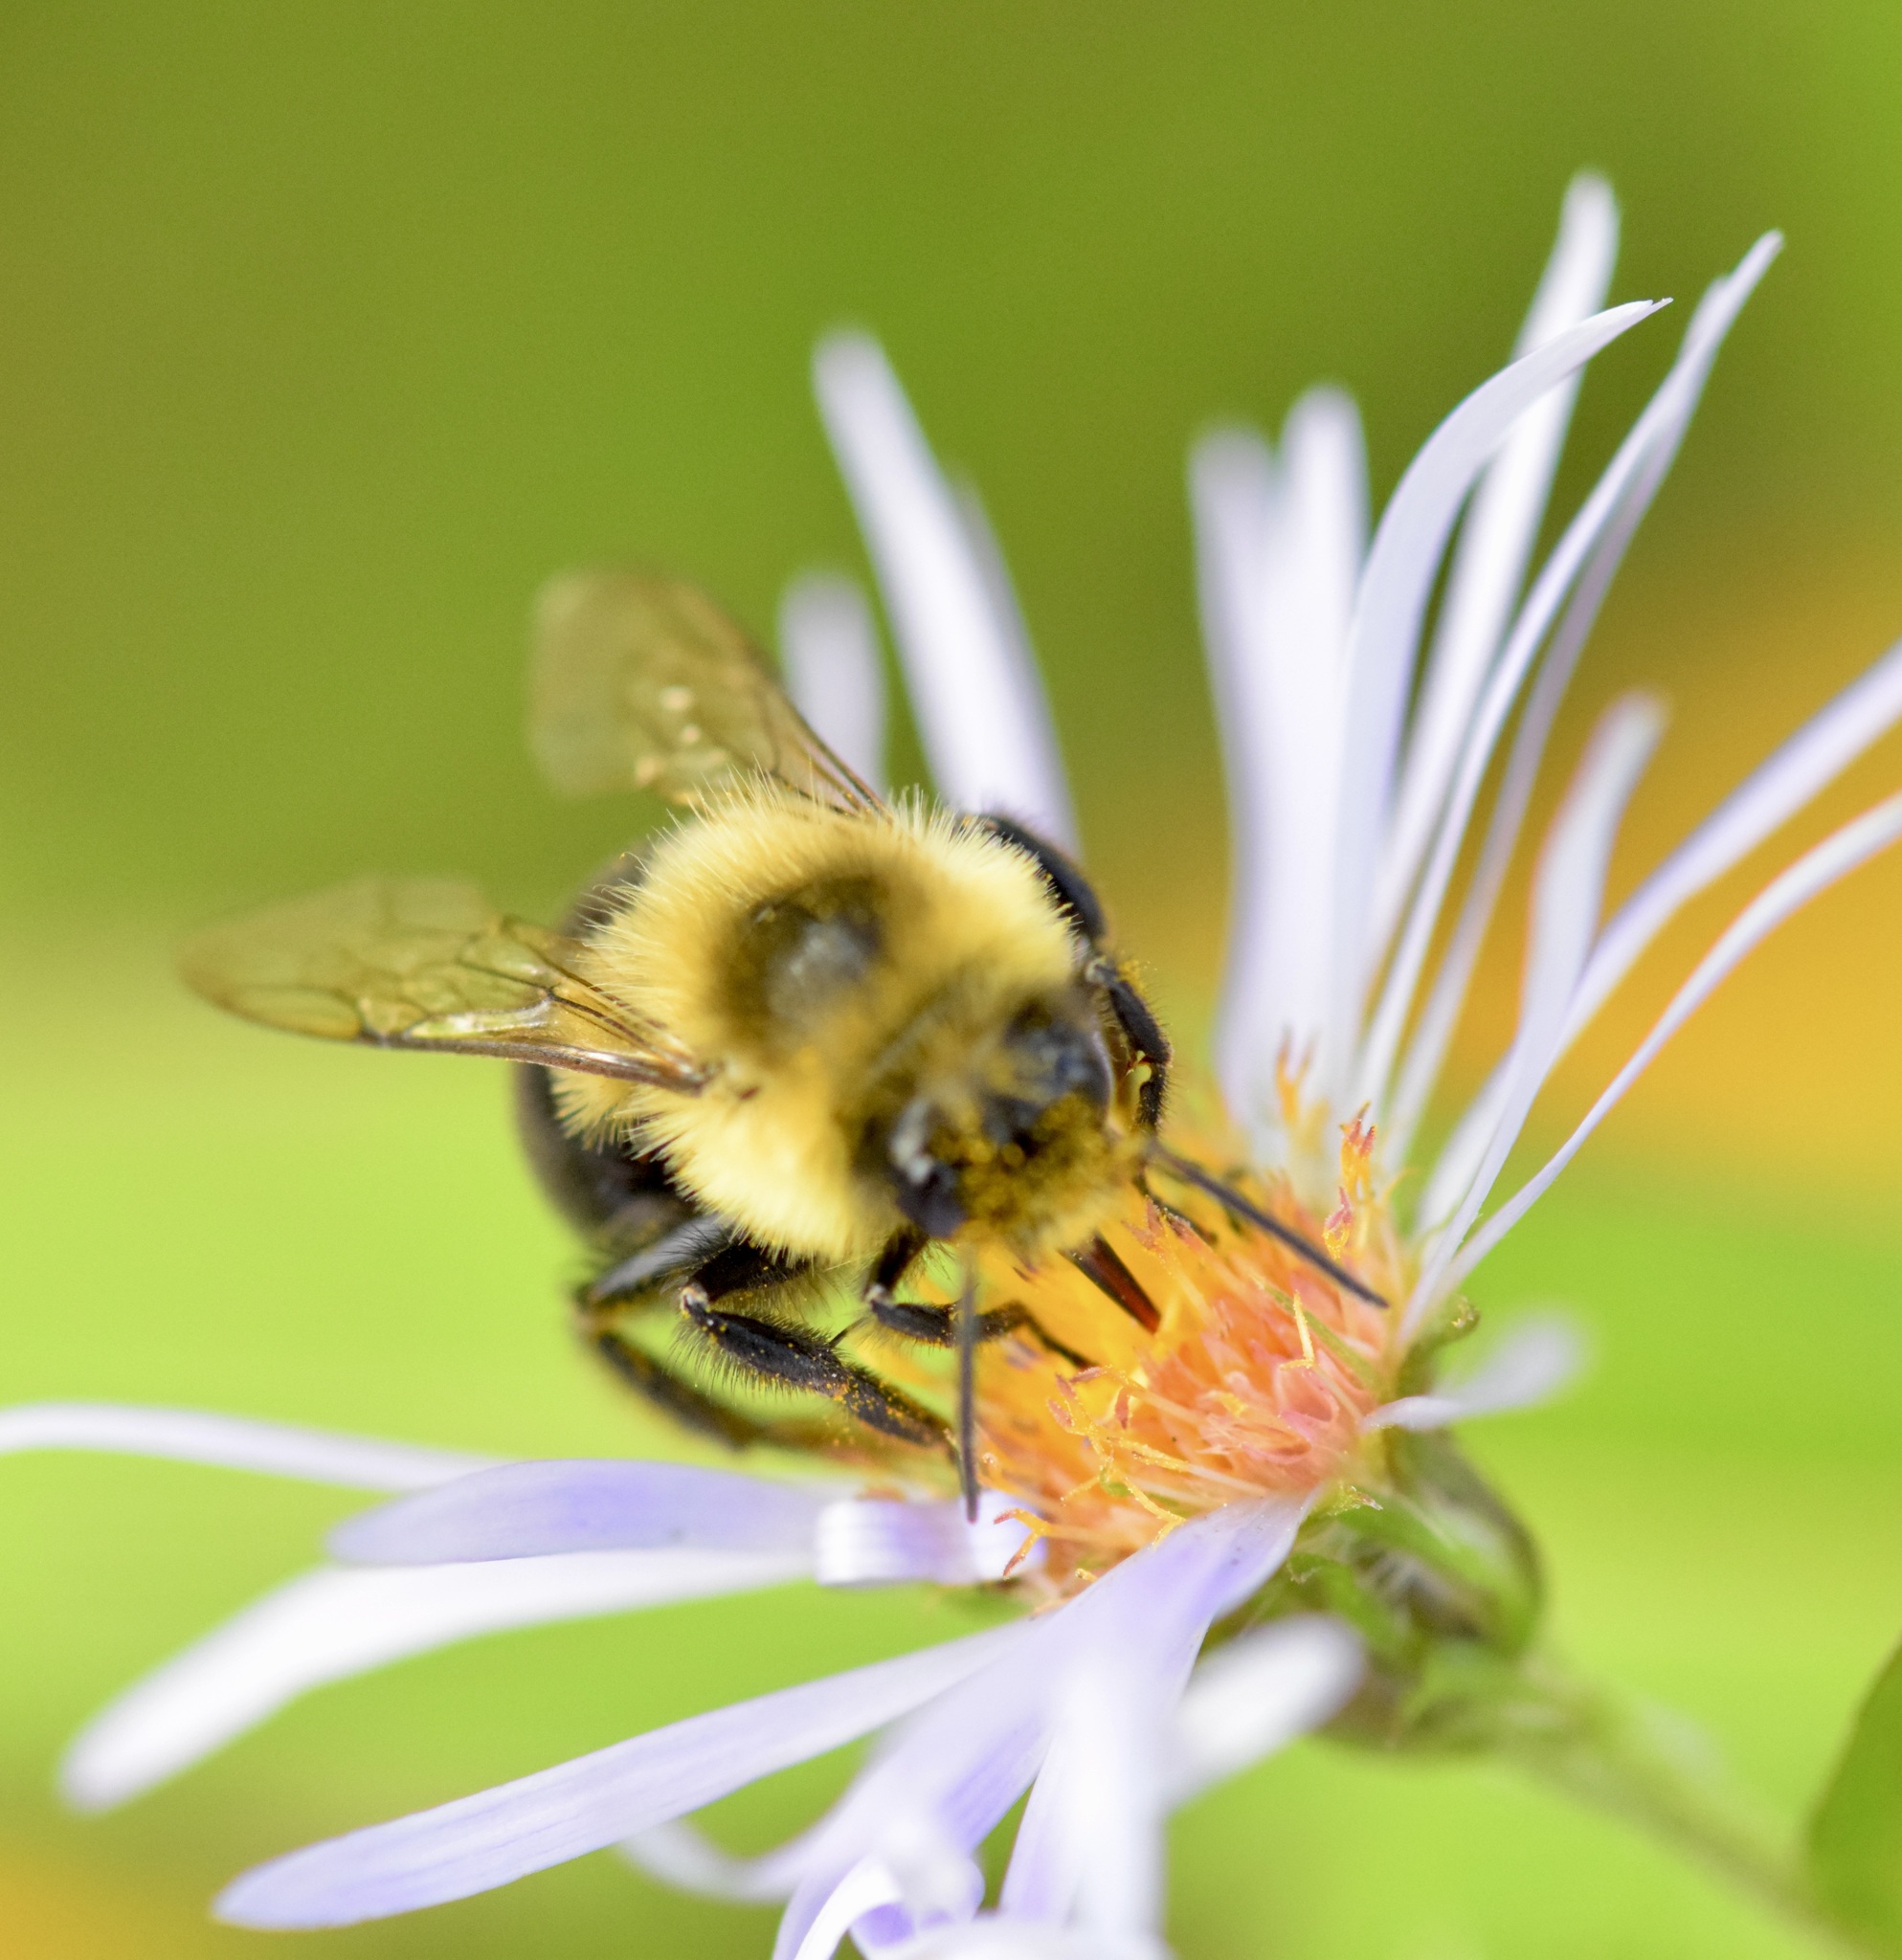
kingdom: Animalia
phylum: Arthropoda
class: Insecta
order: Hymenoptera
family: Apidae
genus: Bombus
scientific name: Bombus impatiens
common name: Common eastern bumble bee
